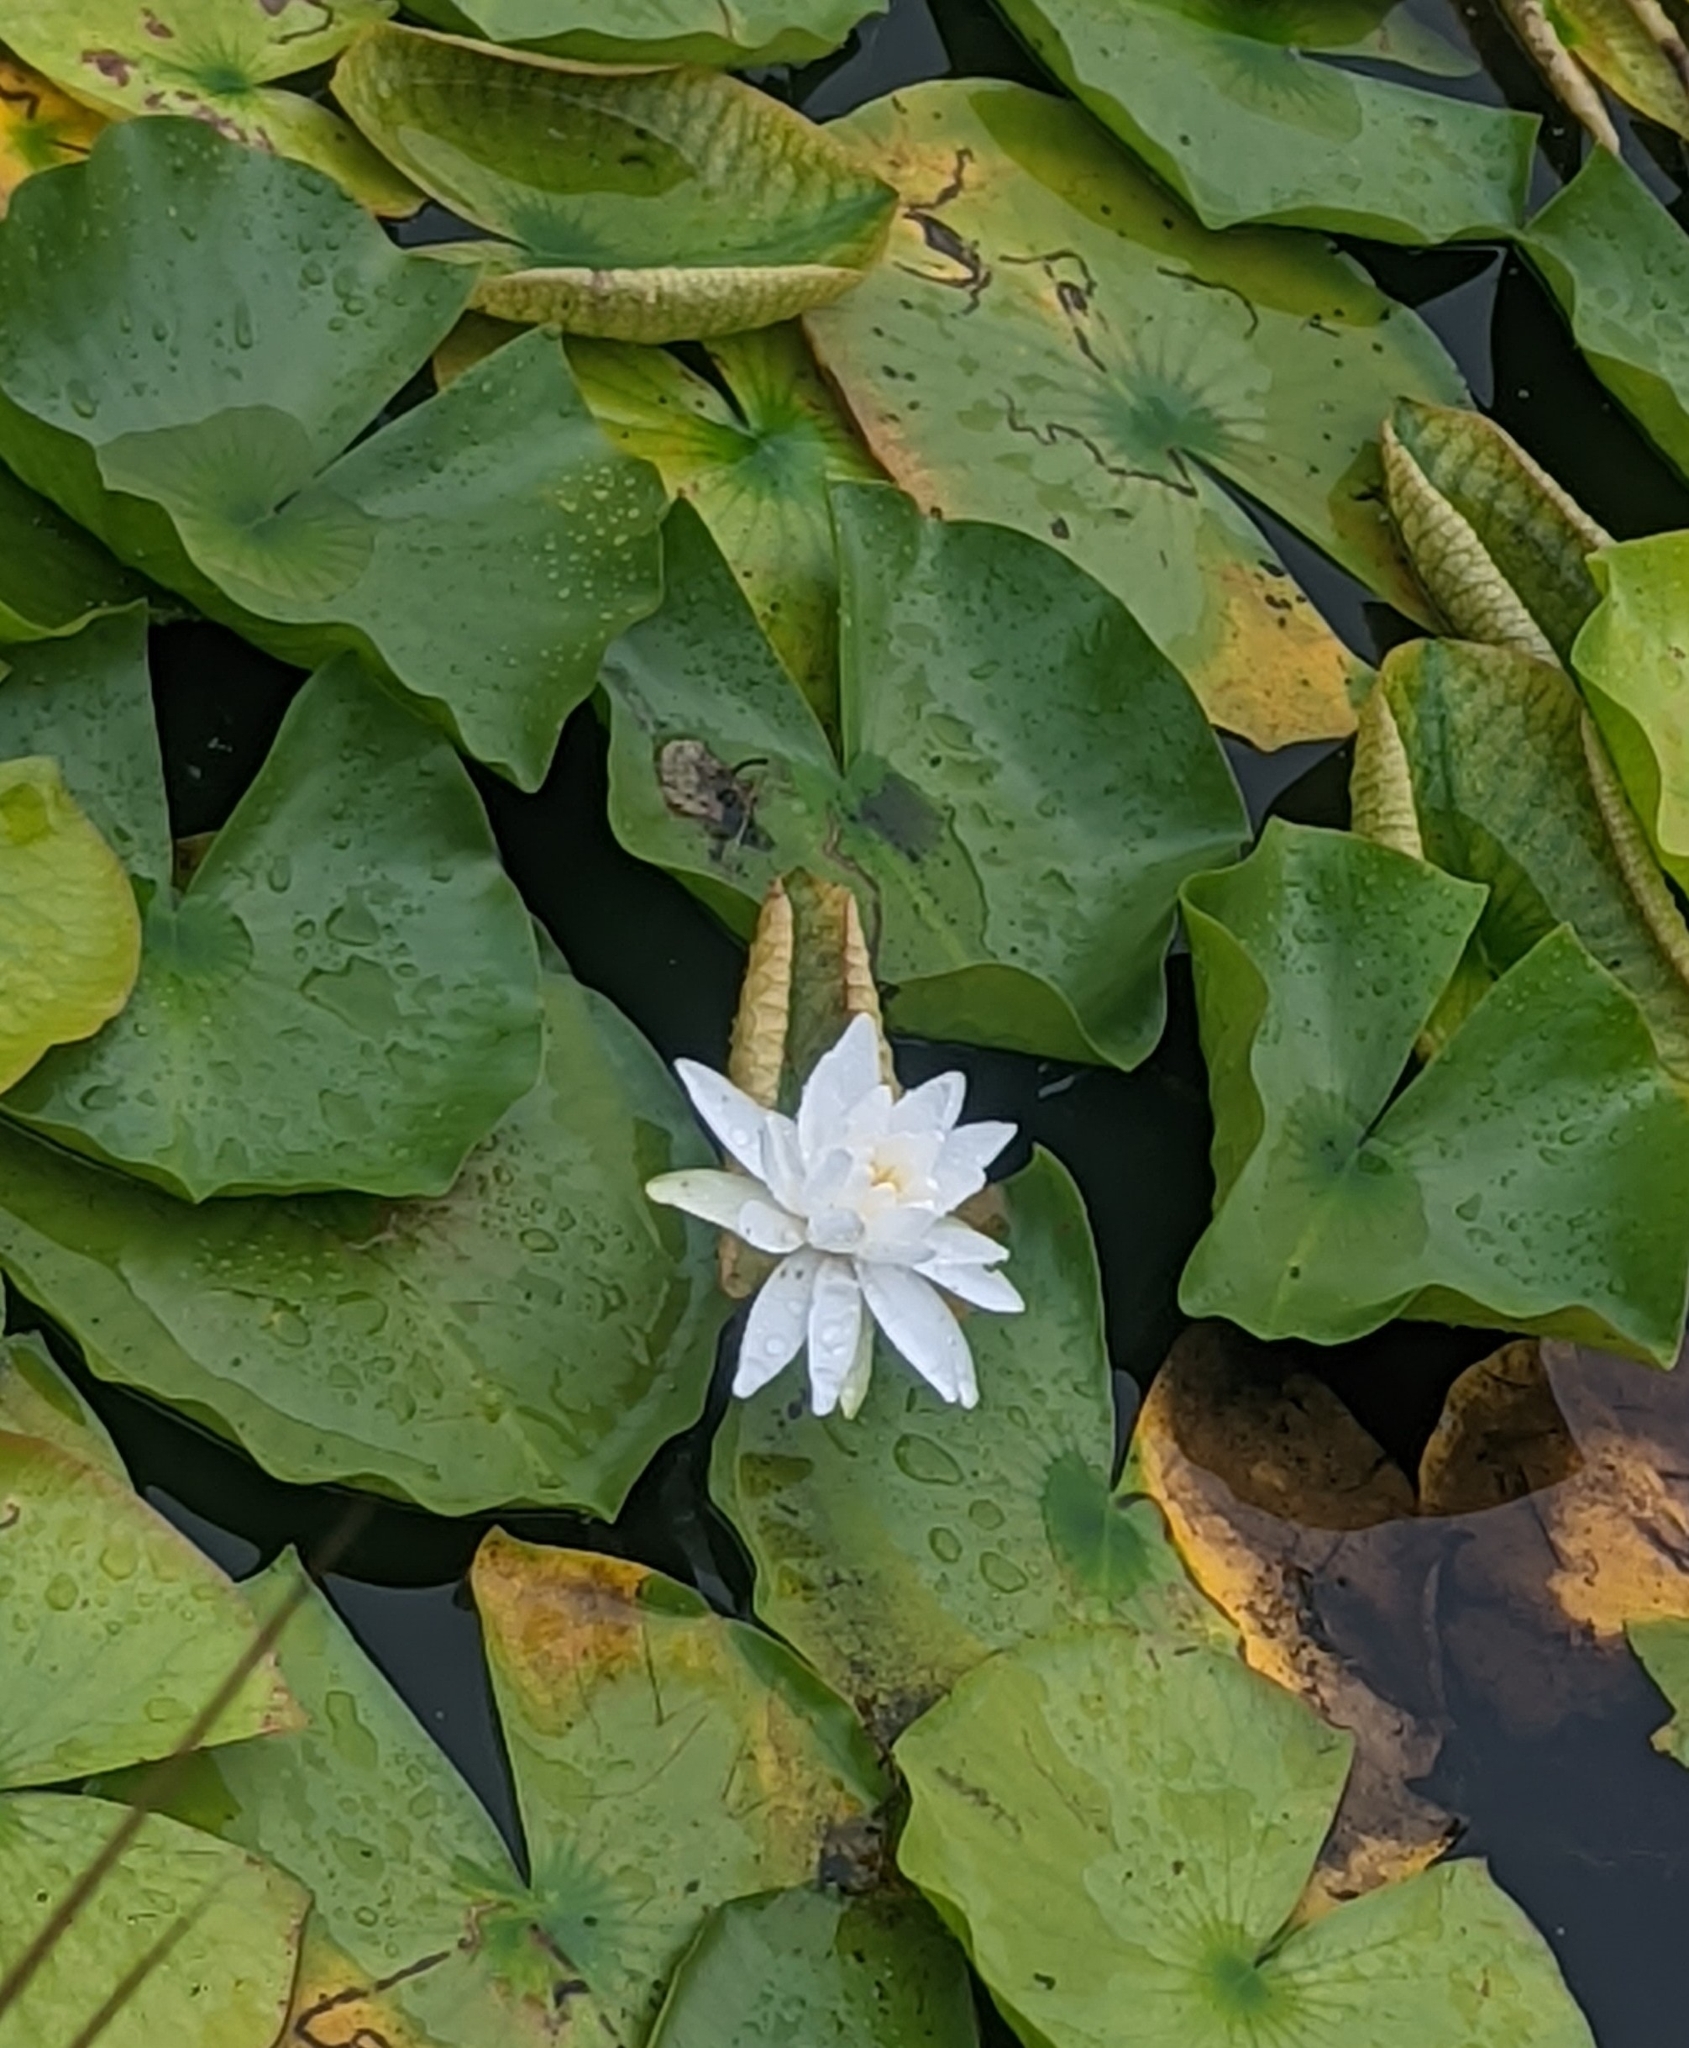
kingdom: Plantae
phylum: Tracheophyta
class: Magnoliopsida
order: Nymphaeales
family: Nymphaeaceae
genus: Nymphaea
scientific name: Nymphaea odorata
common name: Fragrant water-lily
